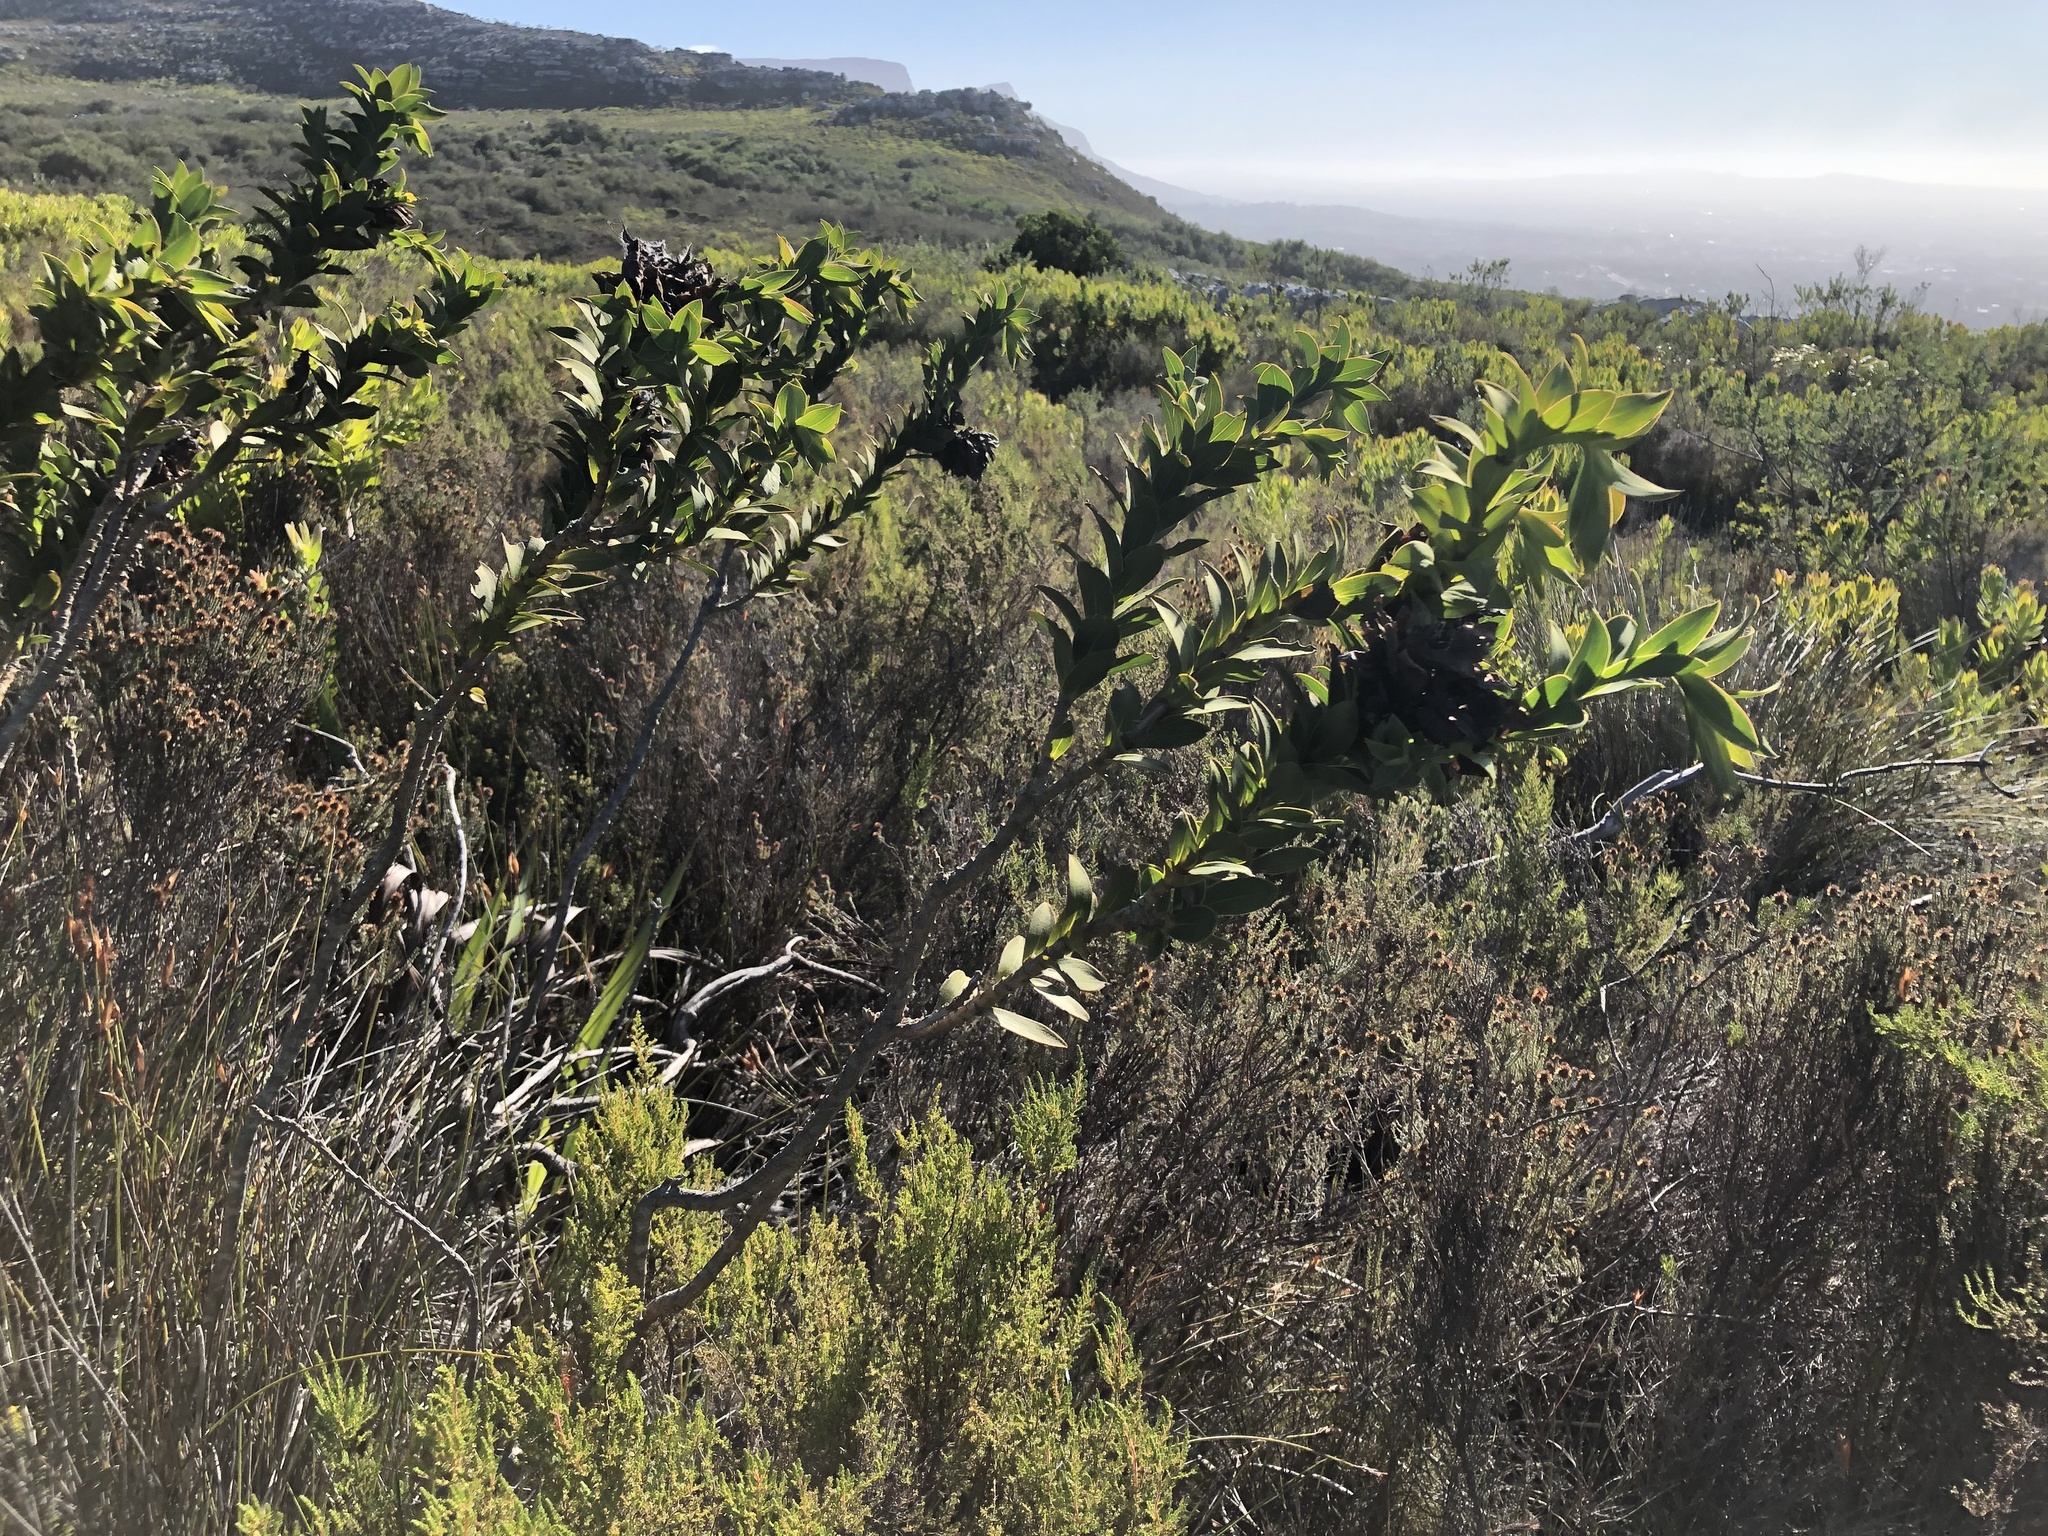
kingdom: Plantae
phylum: Tracheophyta
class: Magnoliopsida
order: Fabales
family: Fabaceae
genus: Liparia
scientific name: Liparia splendens
